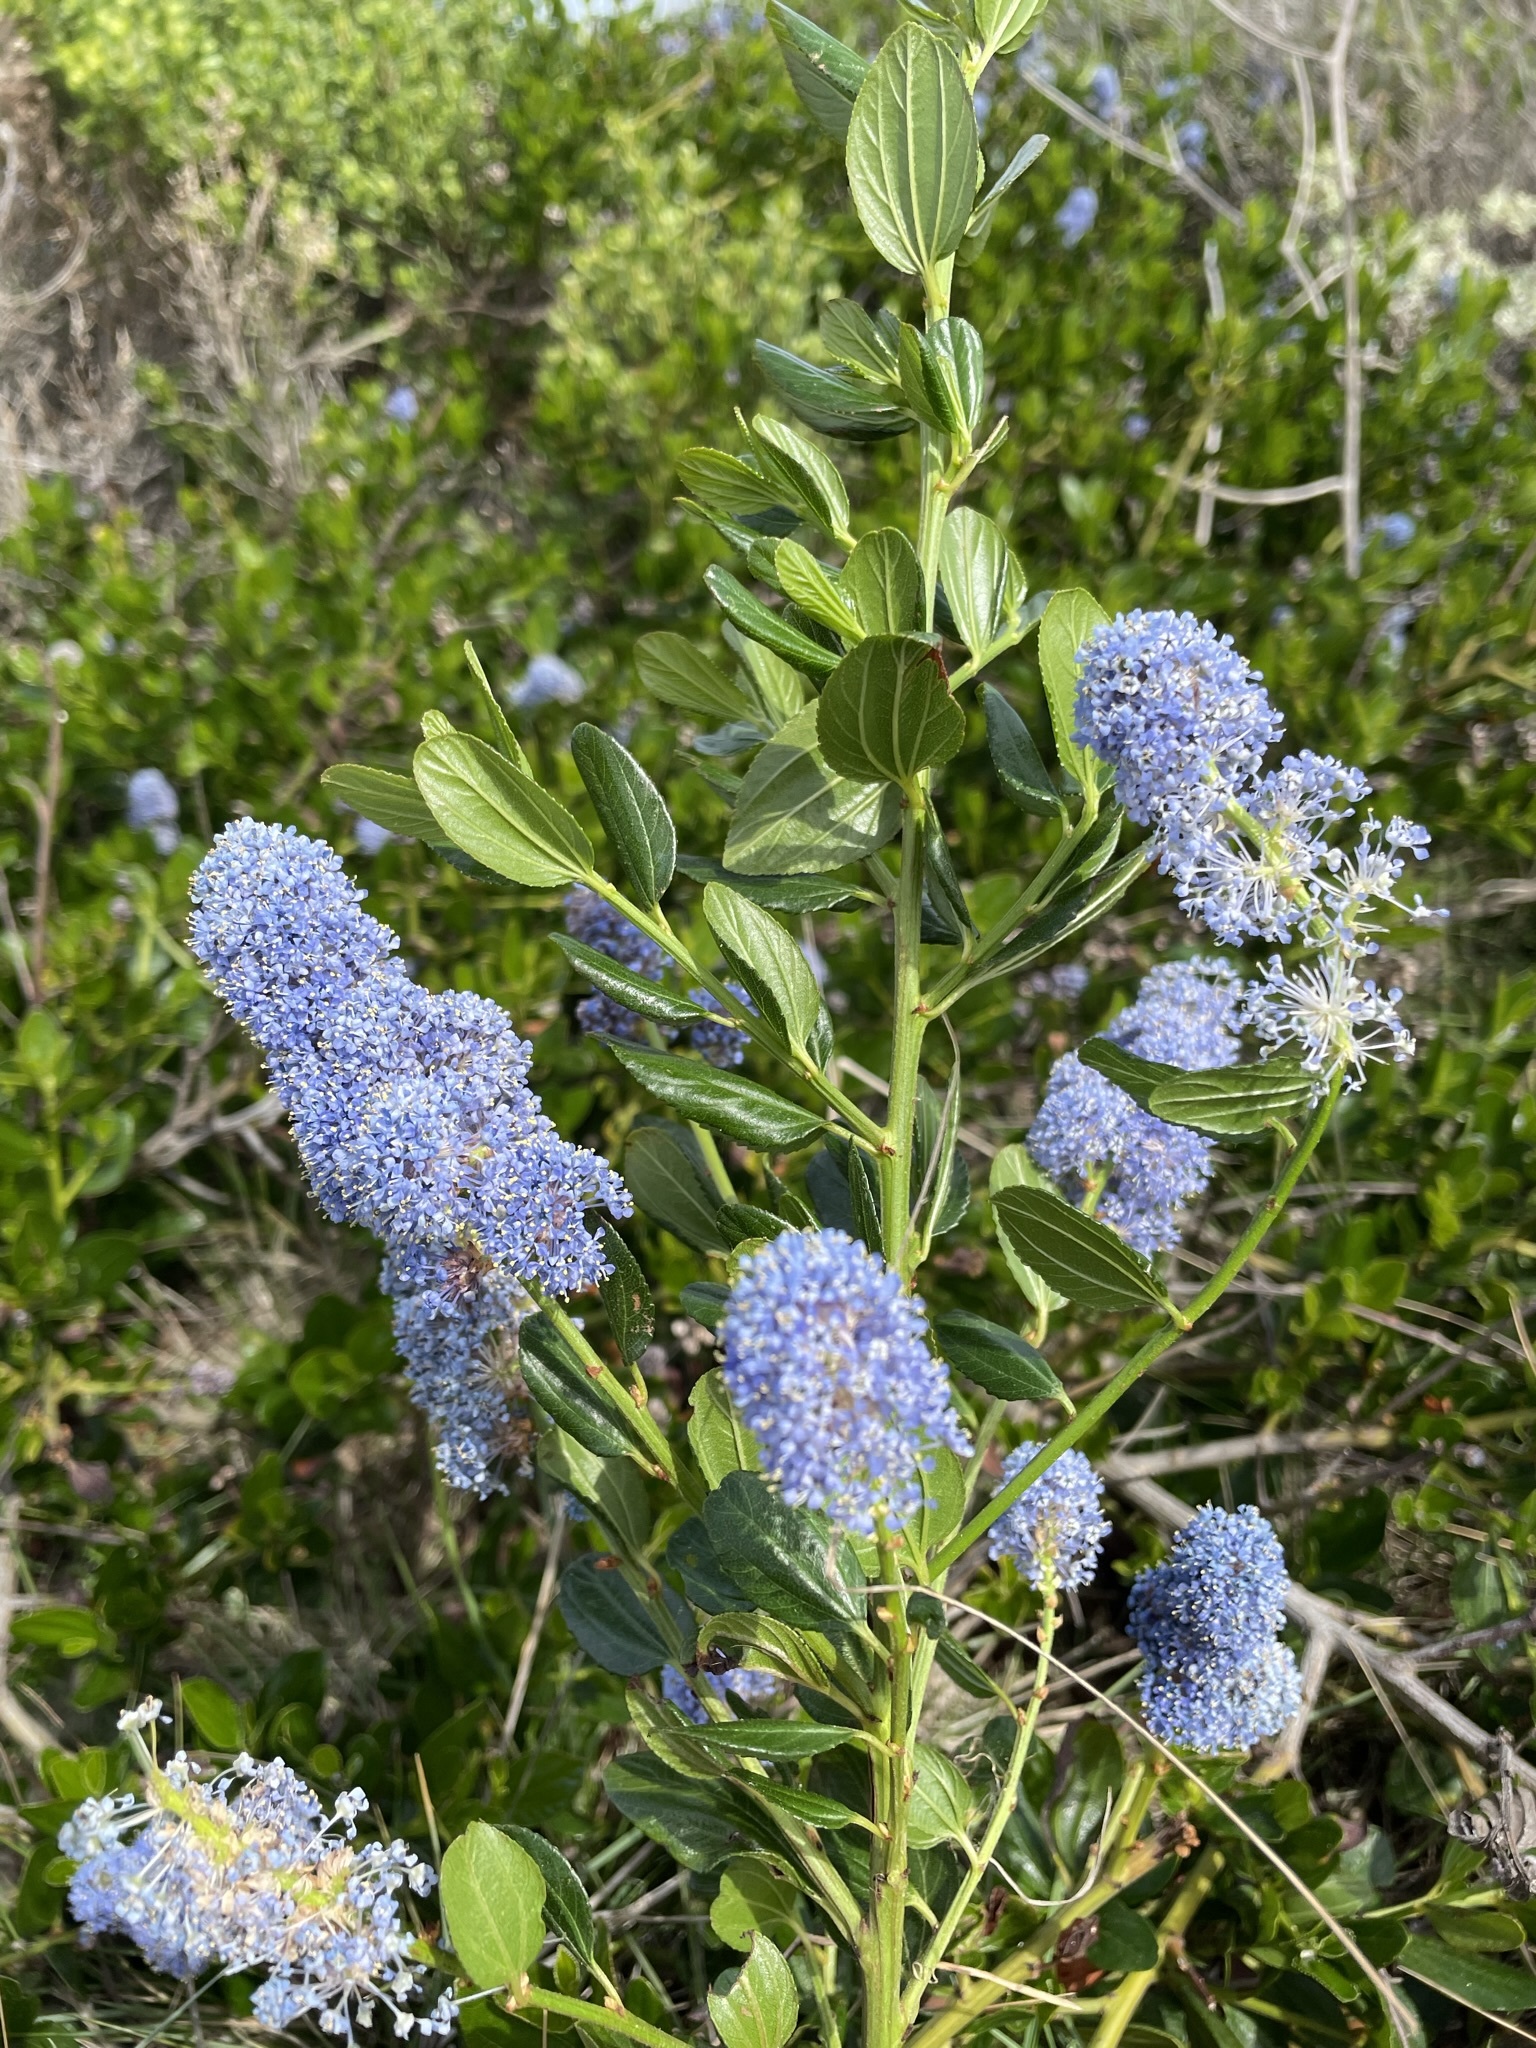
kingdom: Plantae
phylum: Tracheophyta
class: Magnoliopsida
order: Rosales
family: Rhamnaceae
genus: Ceanothus
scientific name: Ceanothus thyrsiflorus
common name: California-lilac
